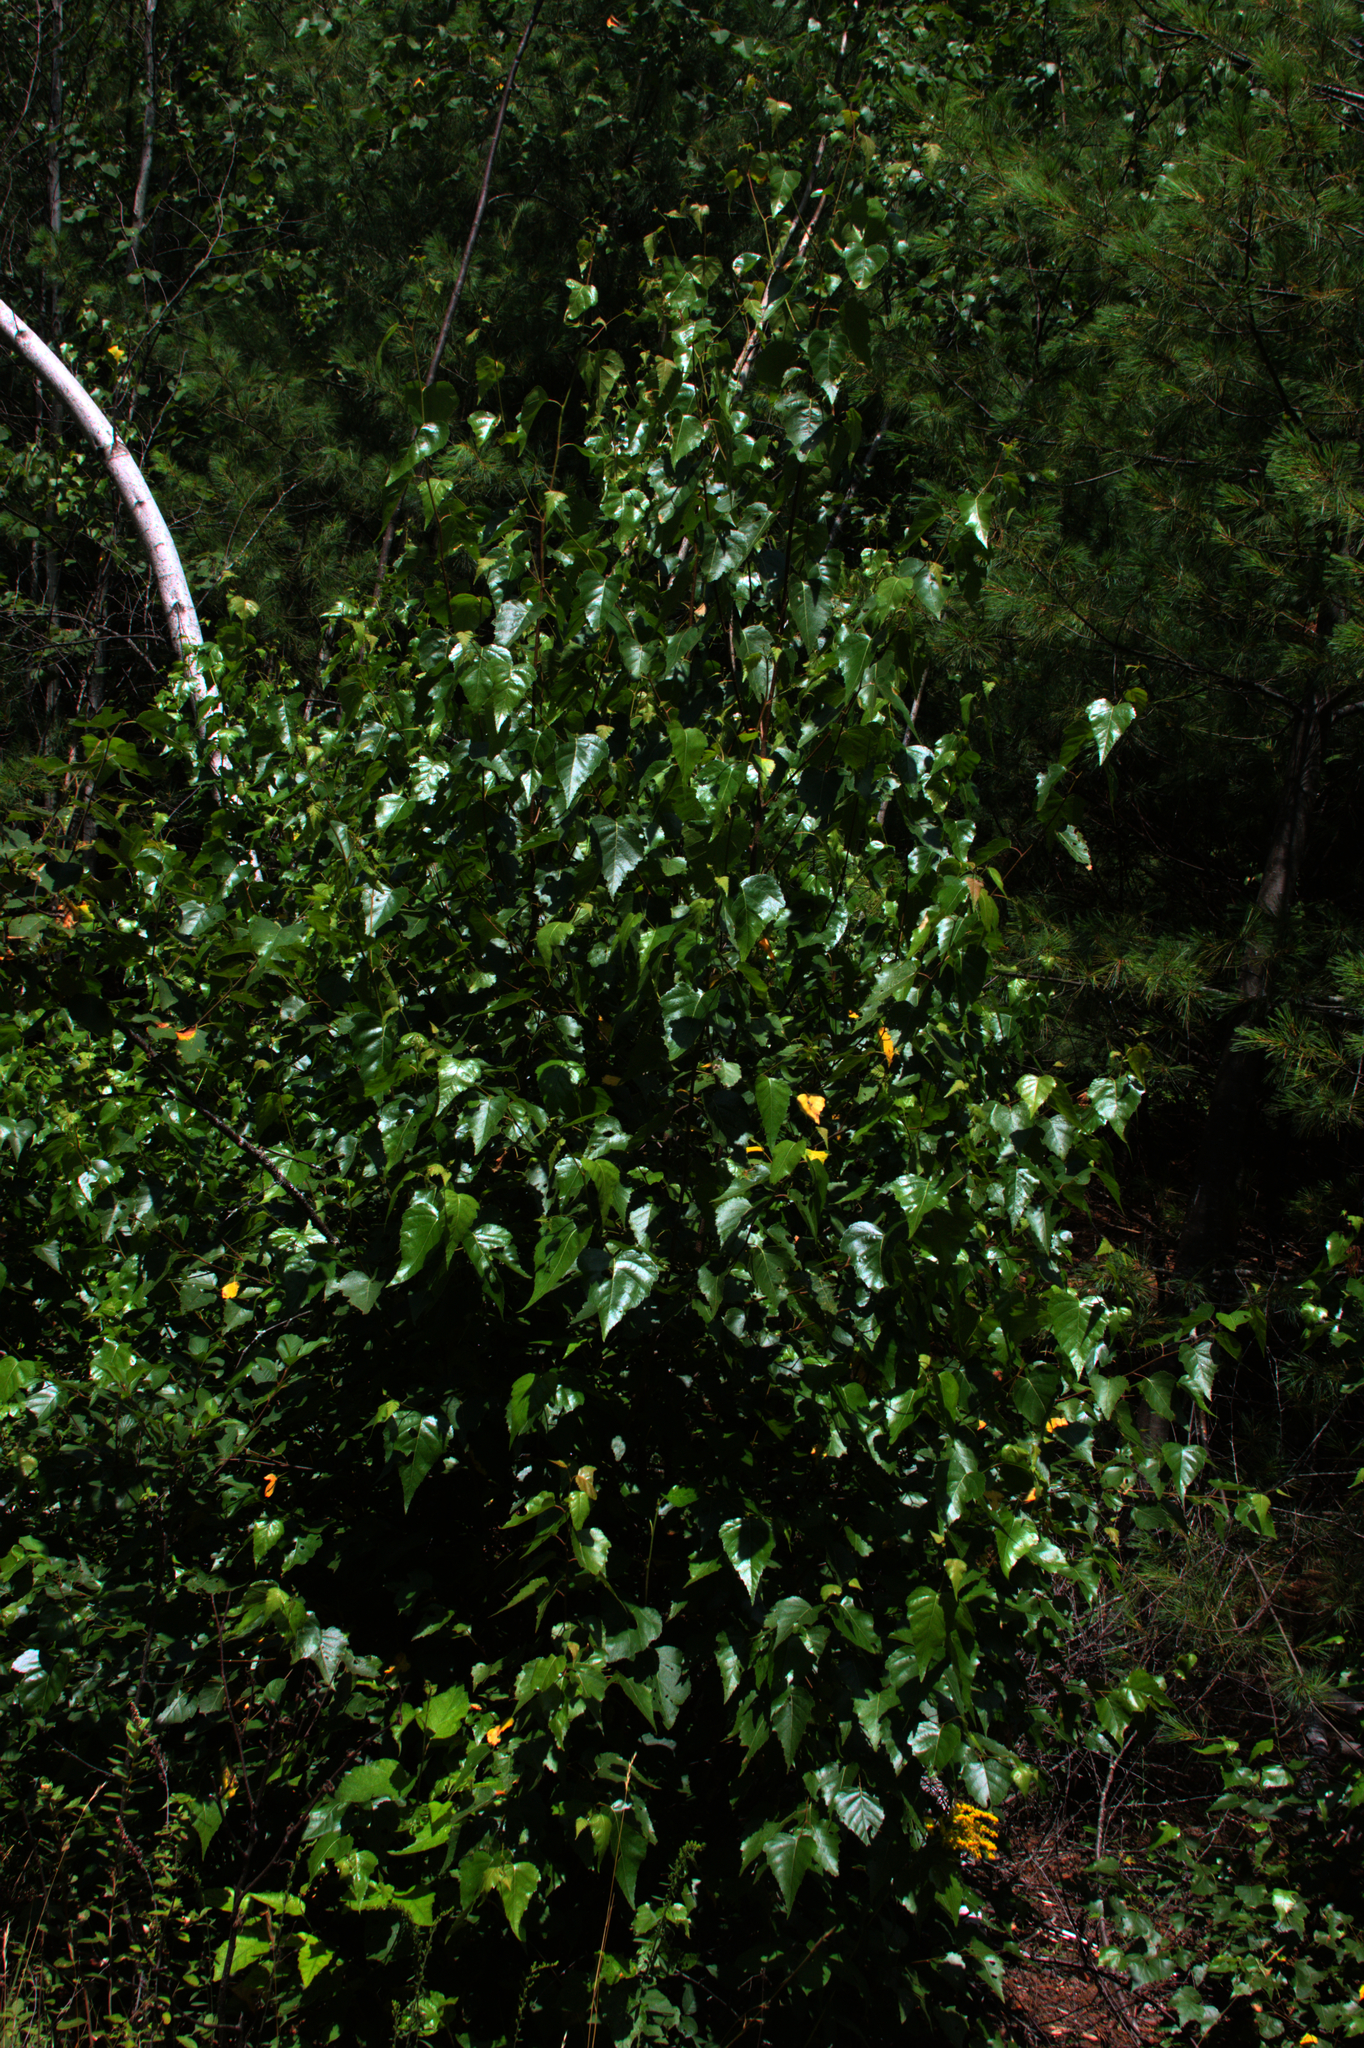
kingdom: Plantae
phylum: Tracheophyta
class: Magnoliopsida
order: Fagales
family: Betulaceae
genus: Betula
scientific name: Betula populifolia
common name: Fire birch
